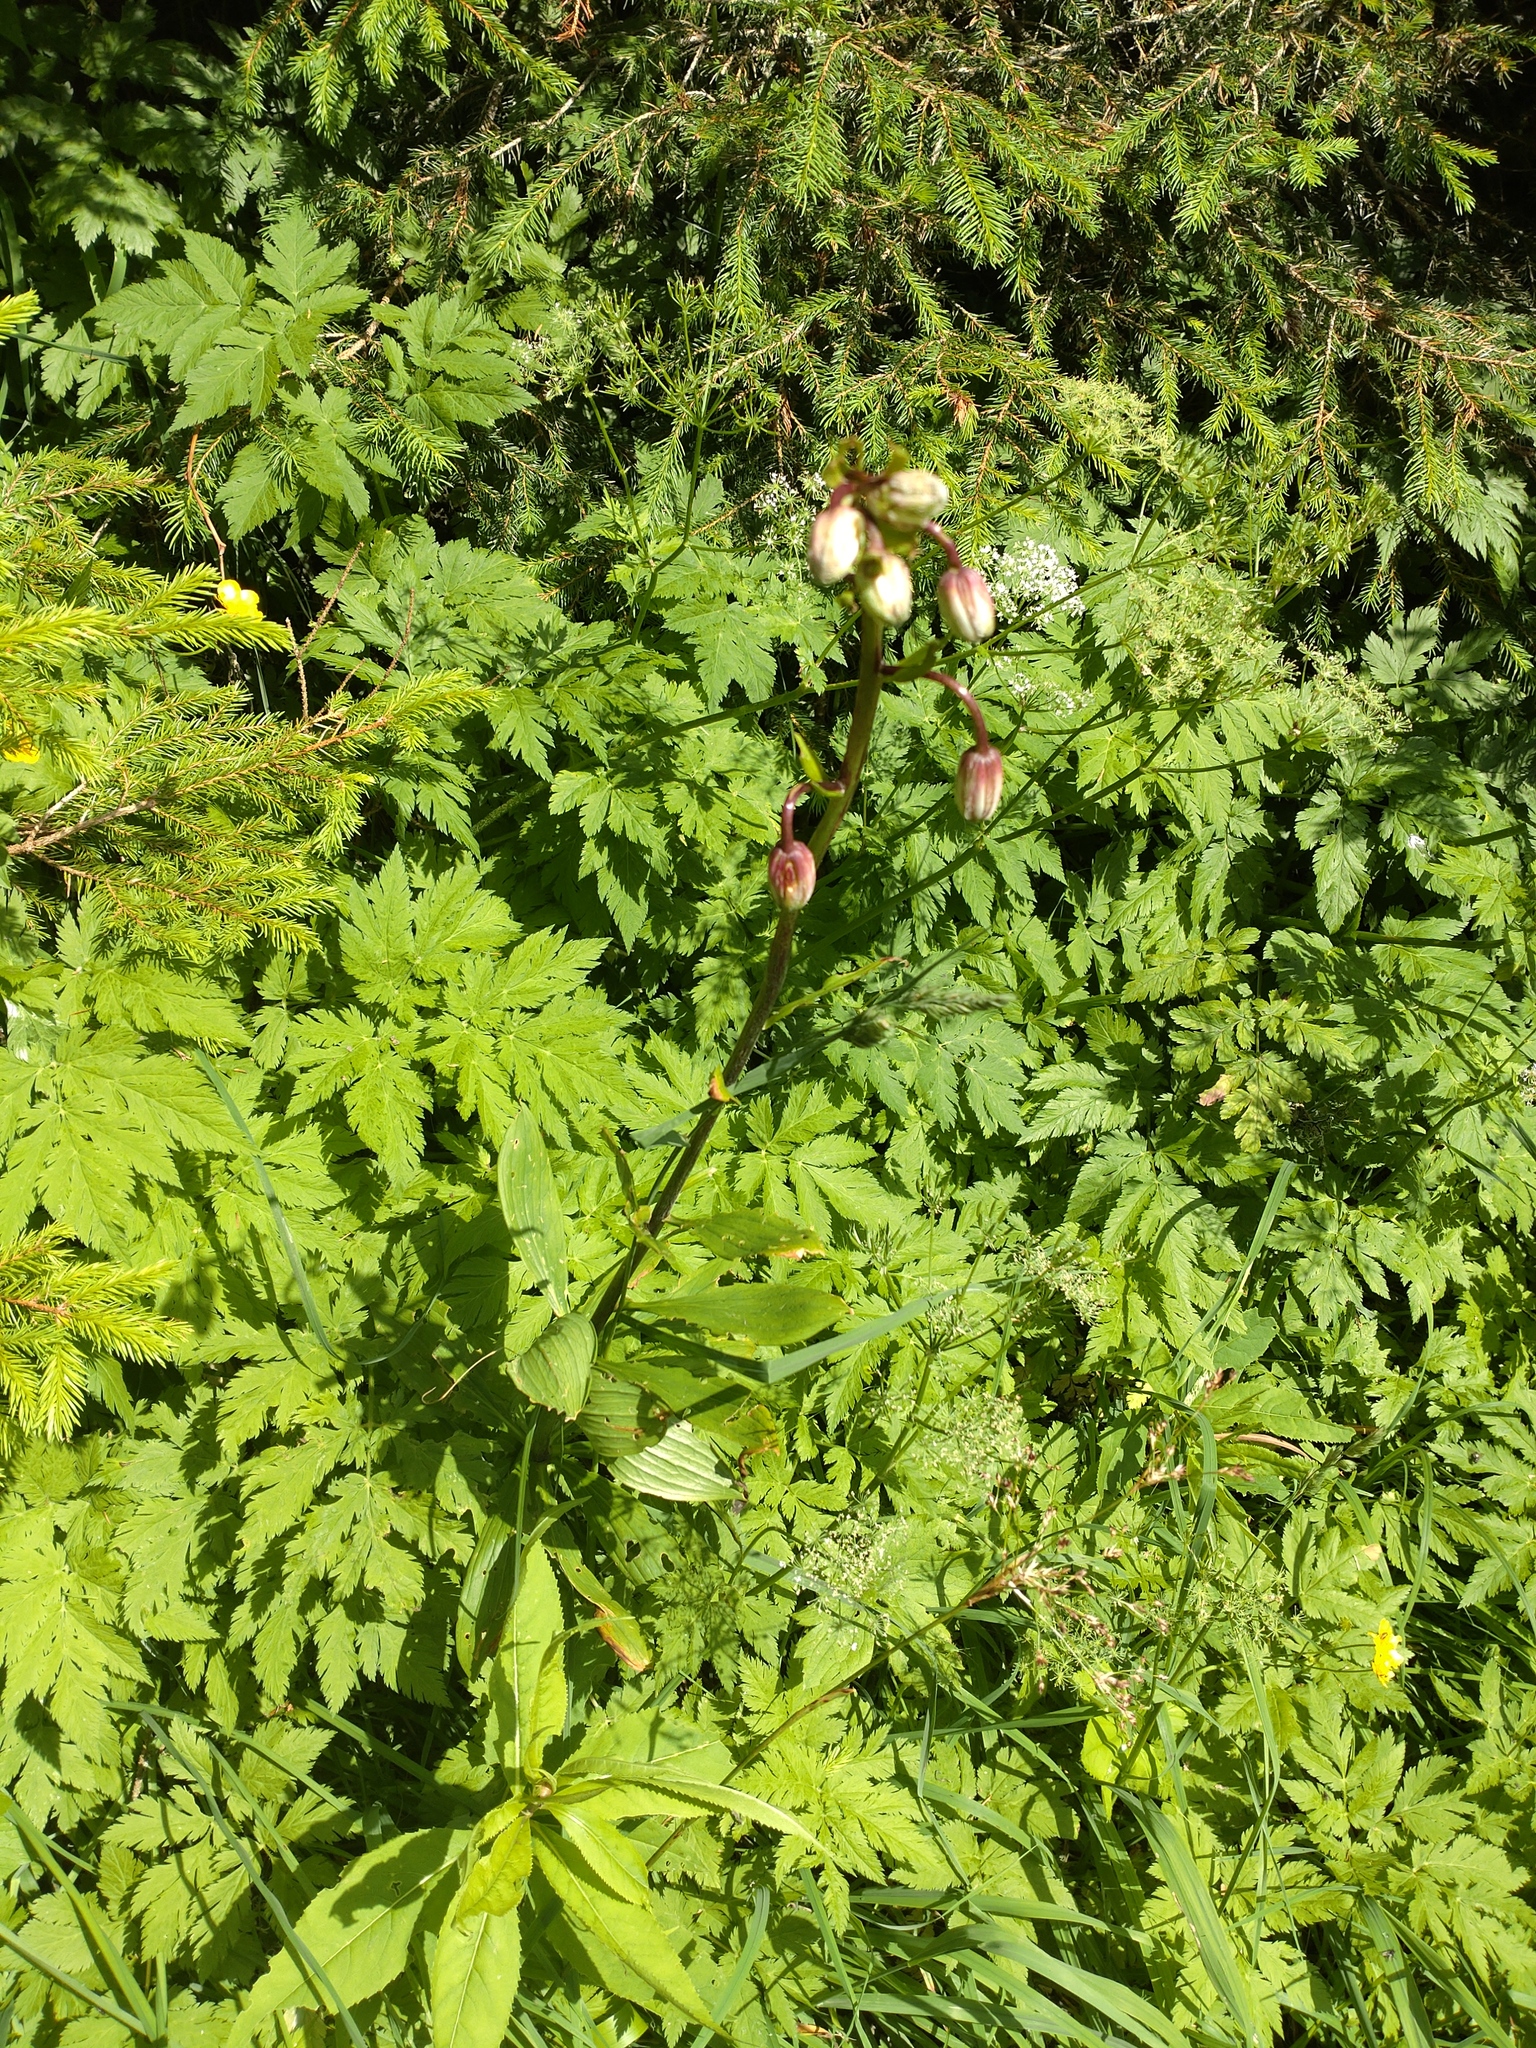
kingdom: Plantae
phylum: Tracheophyta
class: Liliopsida
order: Liliales
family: Liliaceae
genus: Lilium
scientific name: Lilium martagon
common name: Martagon lily
